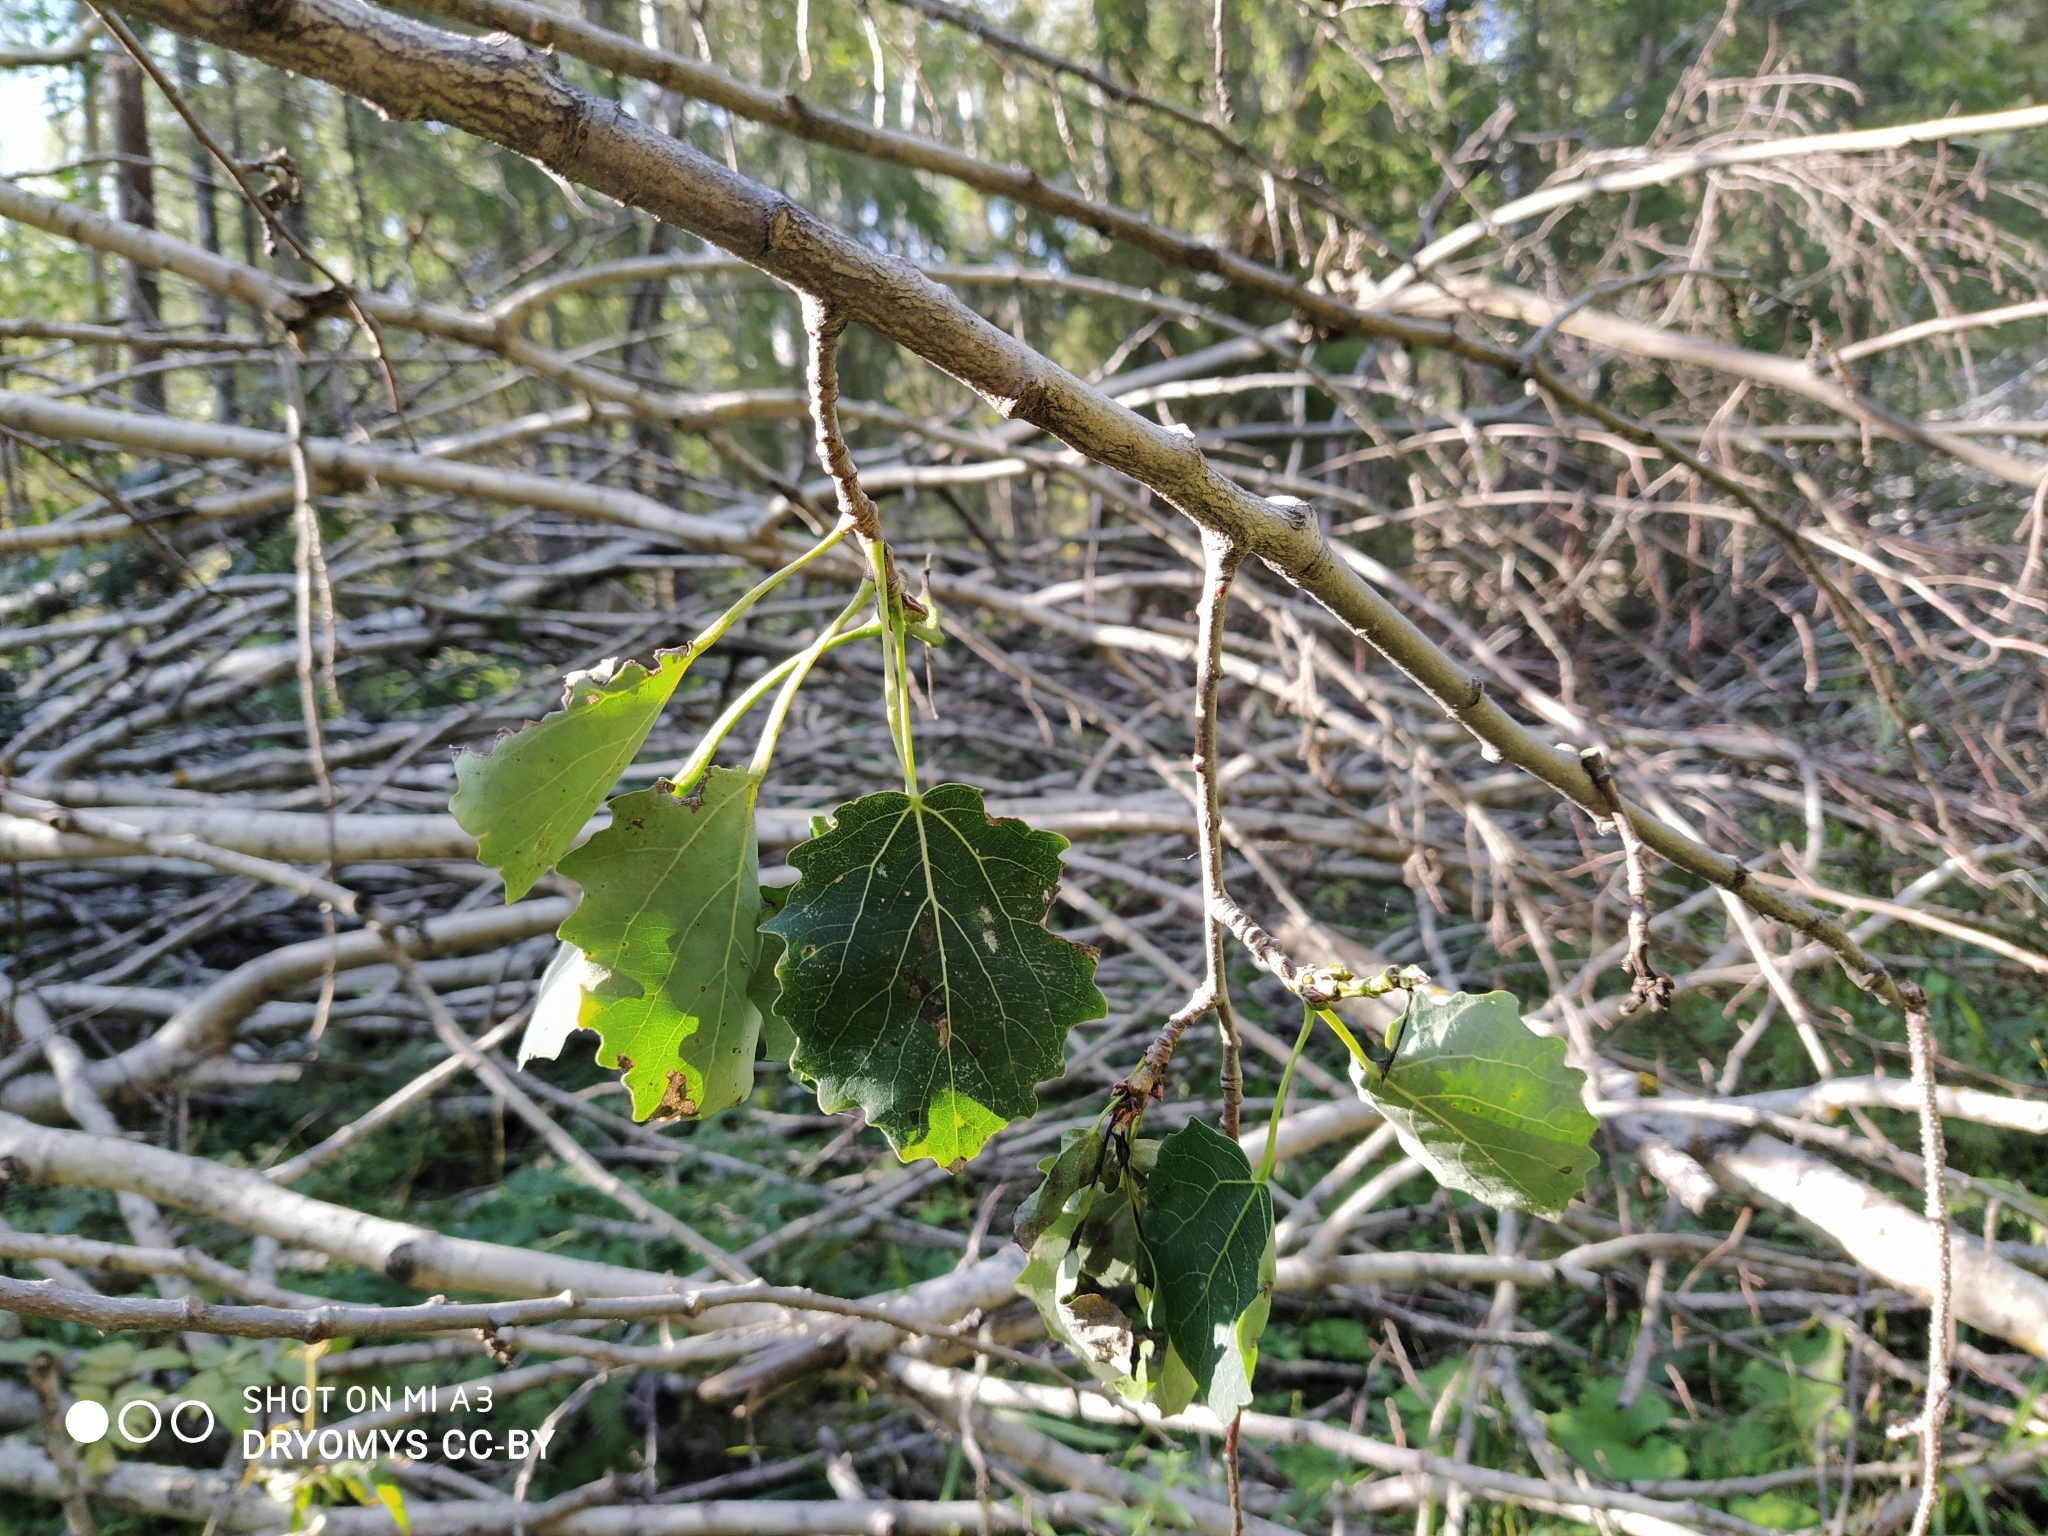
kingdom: Plantae
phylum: Tracheophyta
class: Magnoliopsida
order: Malpighiales
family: Salicaceae
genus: Populus
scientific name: Populus tremula
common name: European aspen
